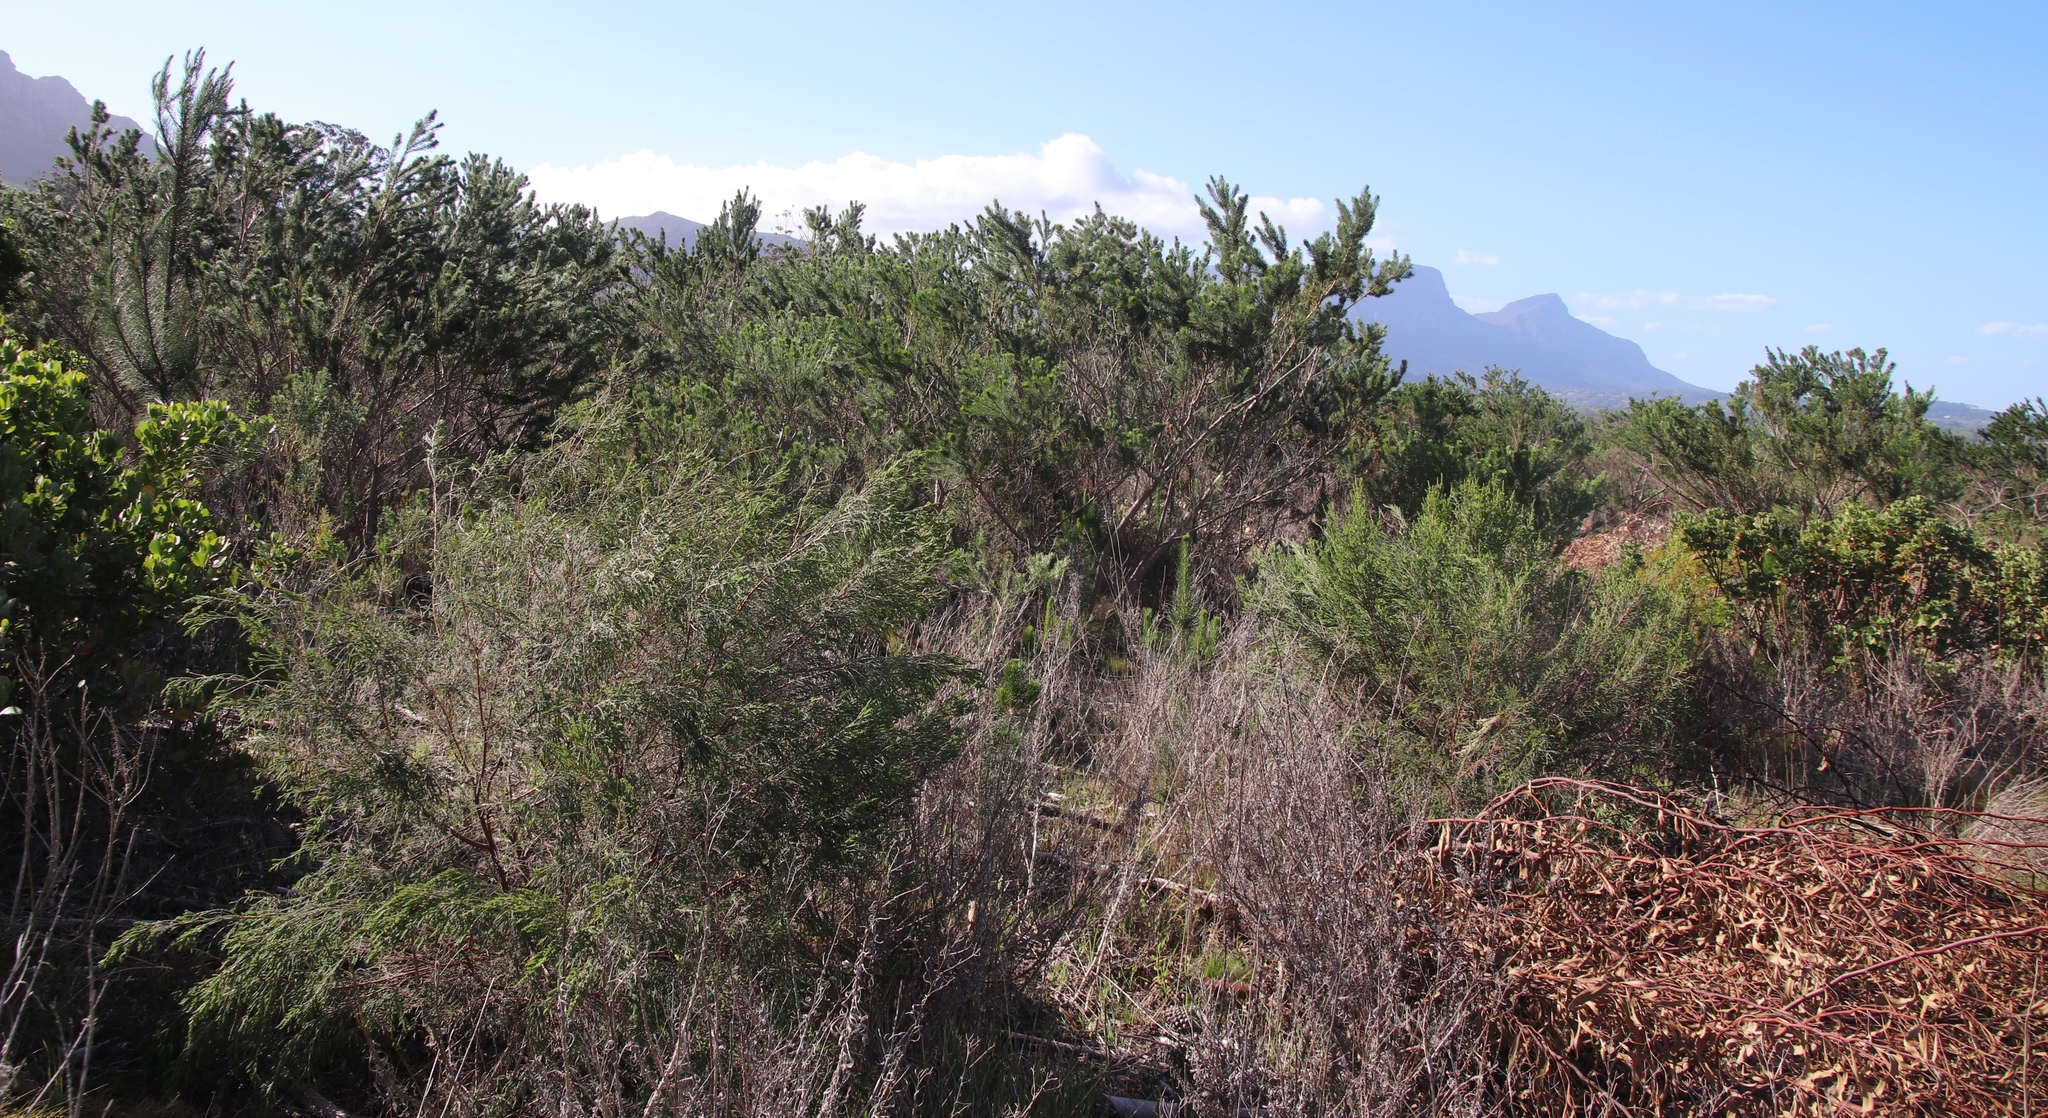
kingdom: Plantae
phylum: Tracheophyta
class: Magnoliopsida
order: Fabales
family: Fabaceae
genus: Psoralea
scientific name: Psoralea pinnata
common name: African scurfpea
